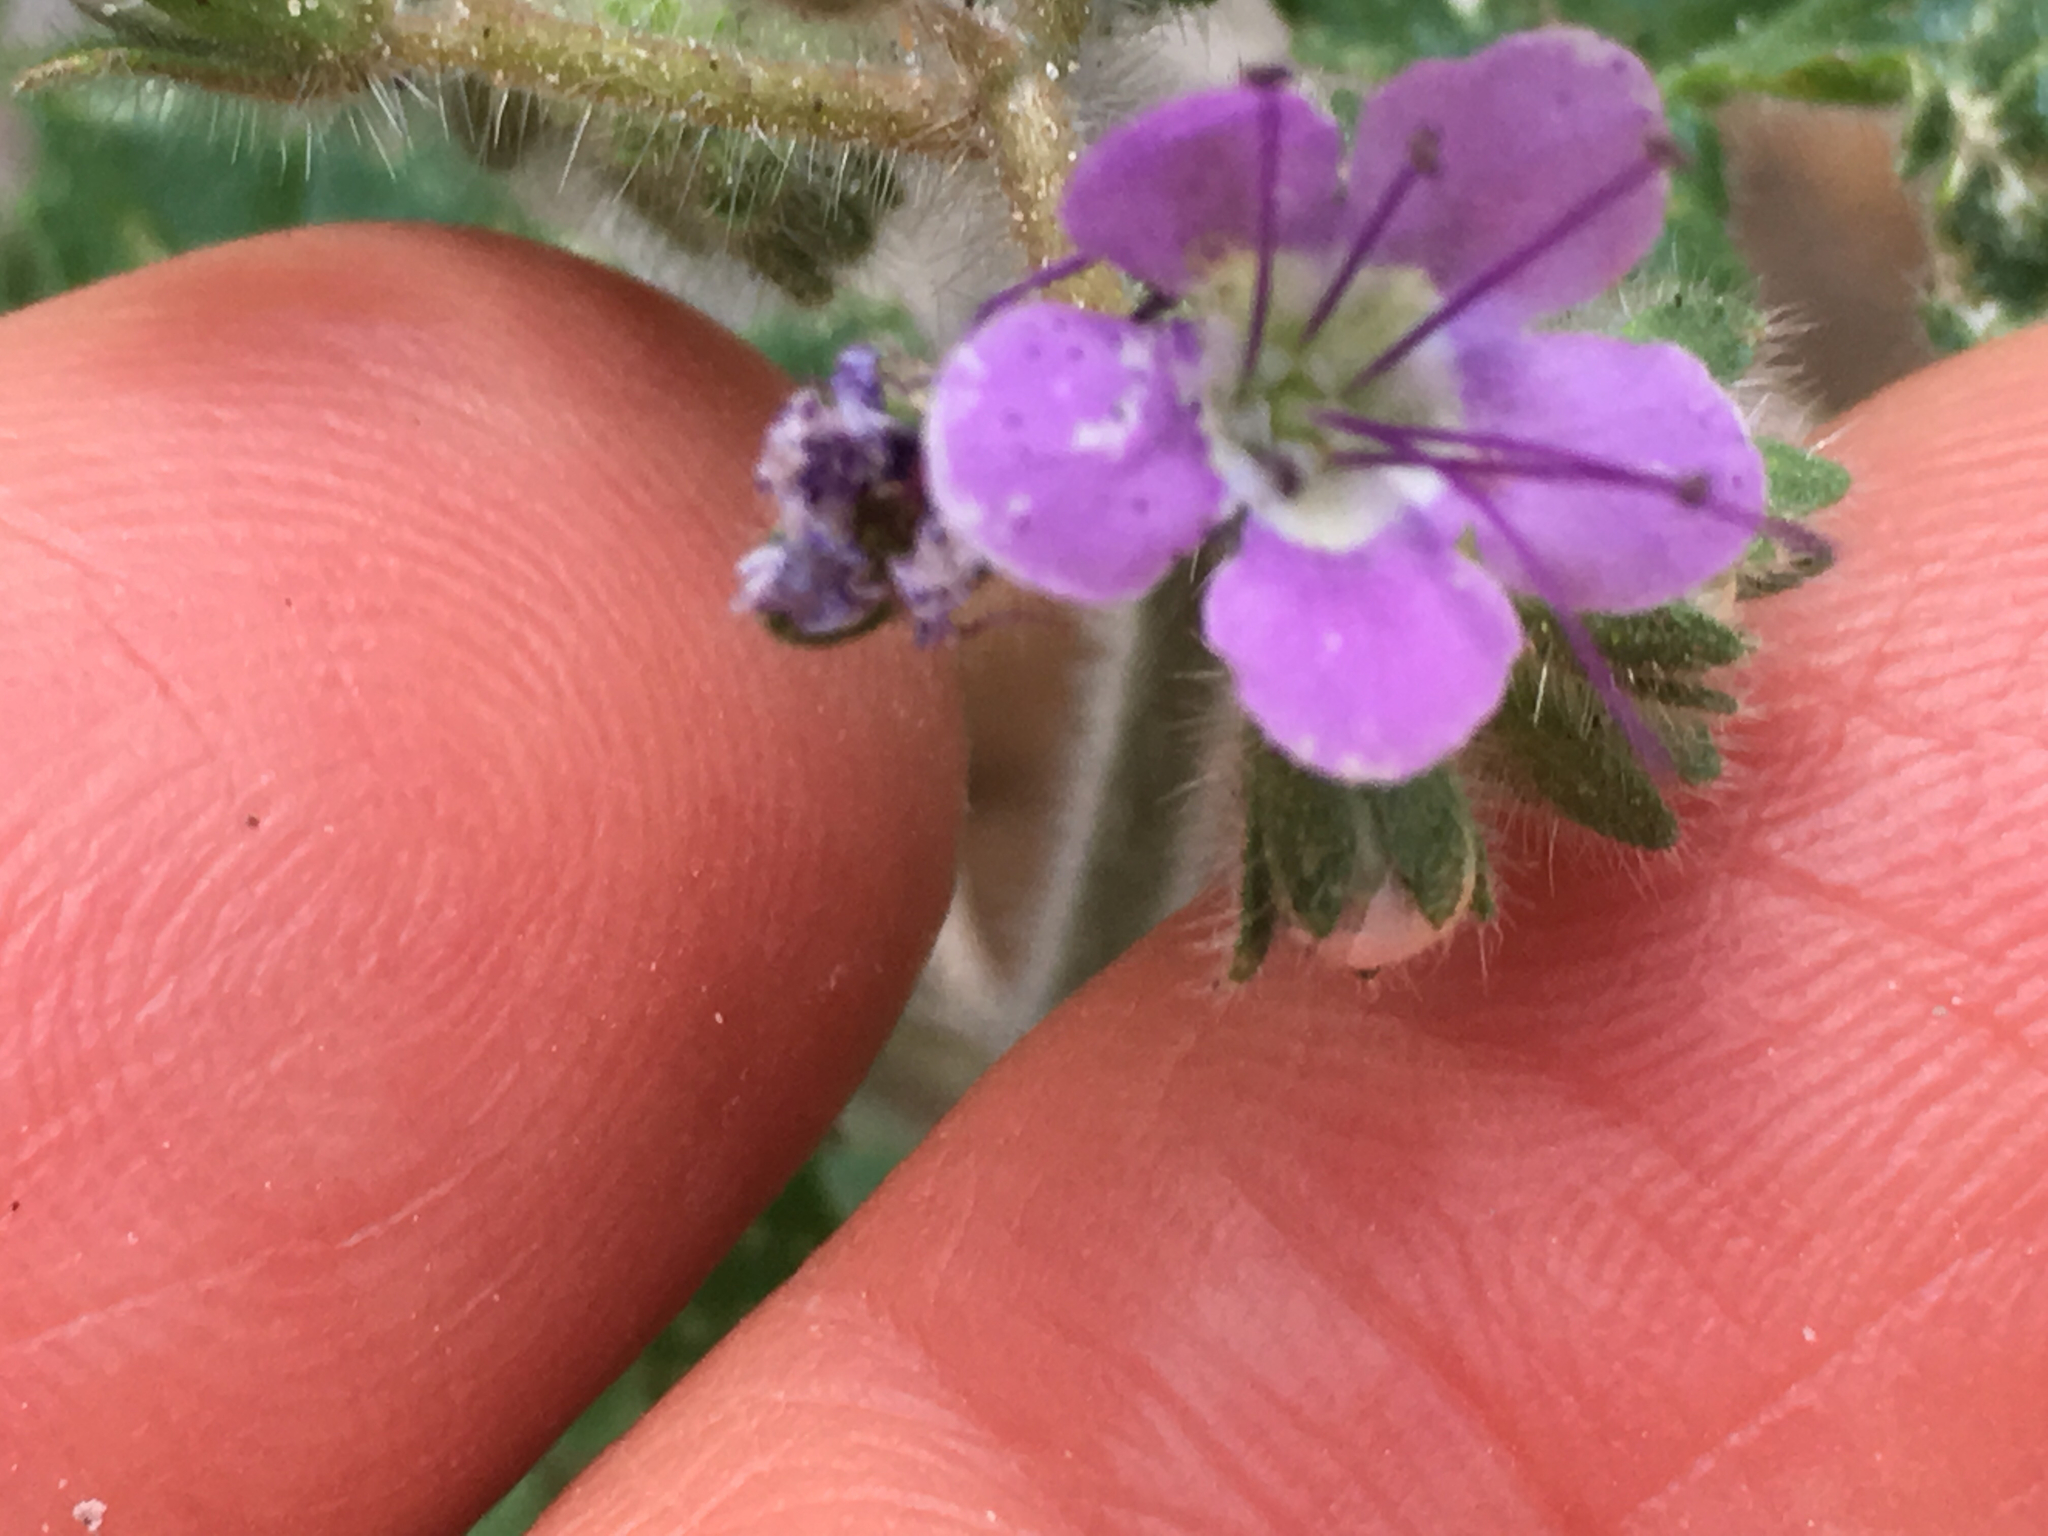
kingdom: Plantae
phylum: Tracheophyta
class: Magnoliopsida
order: Boraginales
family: Hydrophyllaceae
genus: Phacelia
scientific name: Phacelia crenulata
